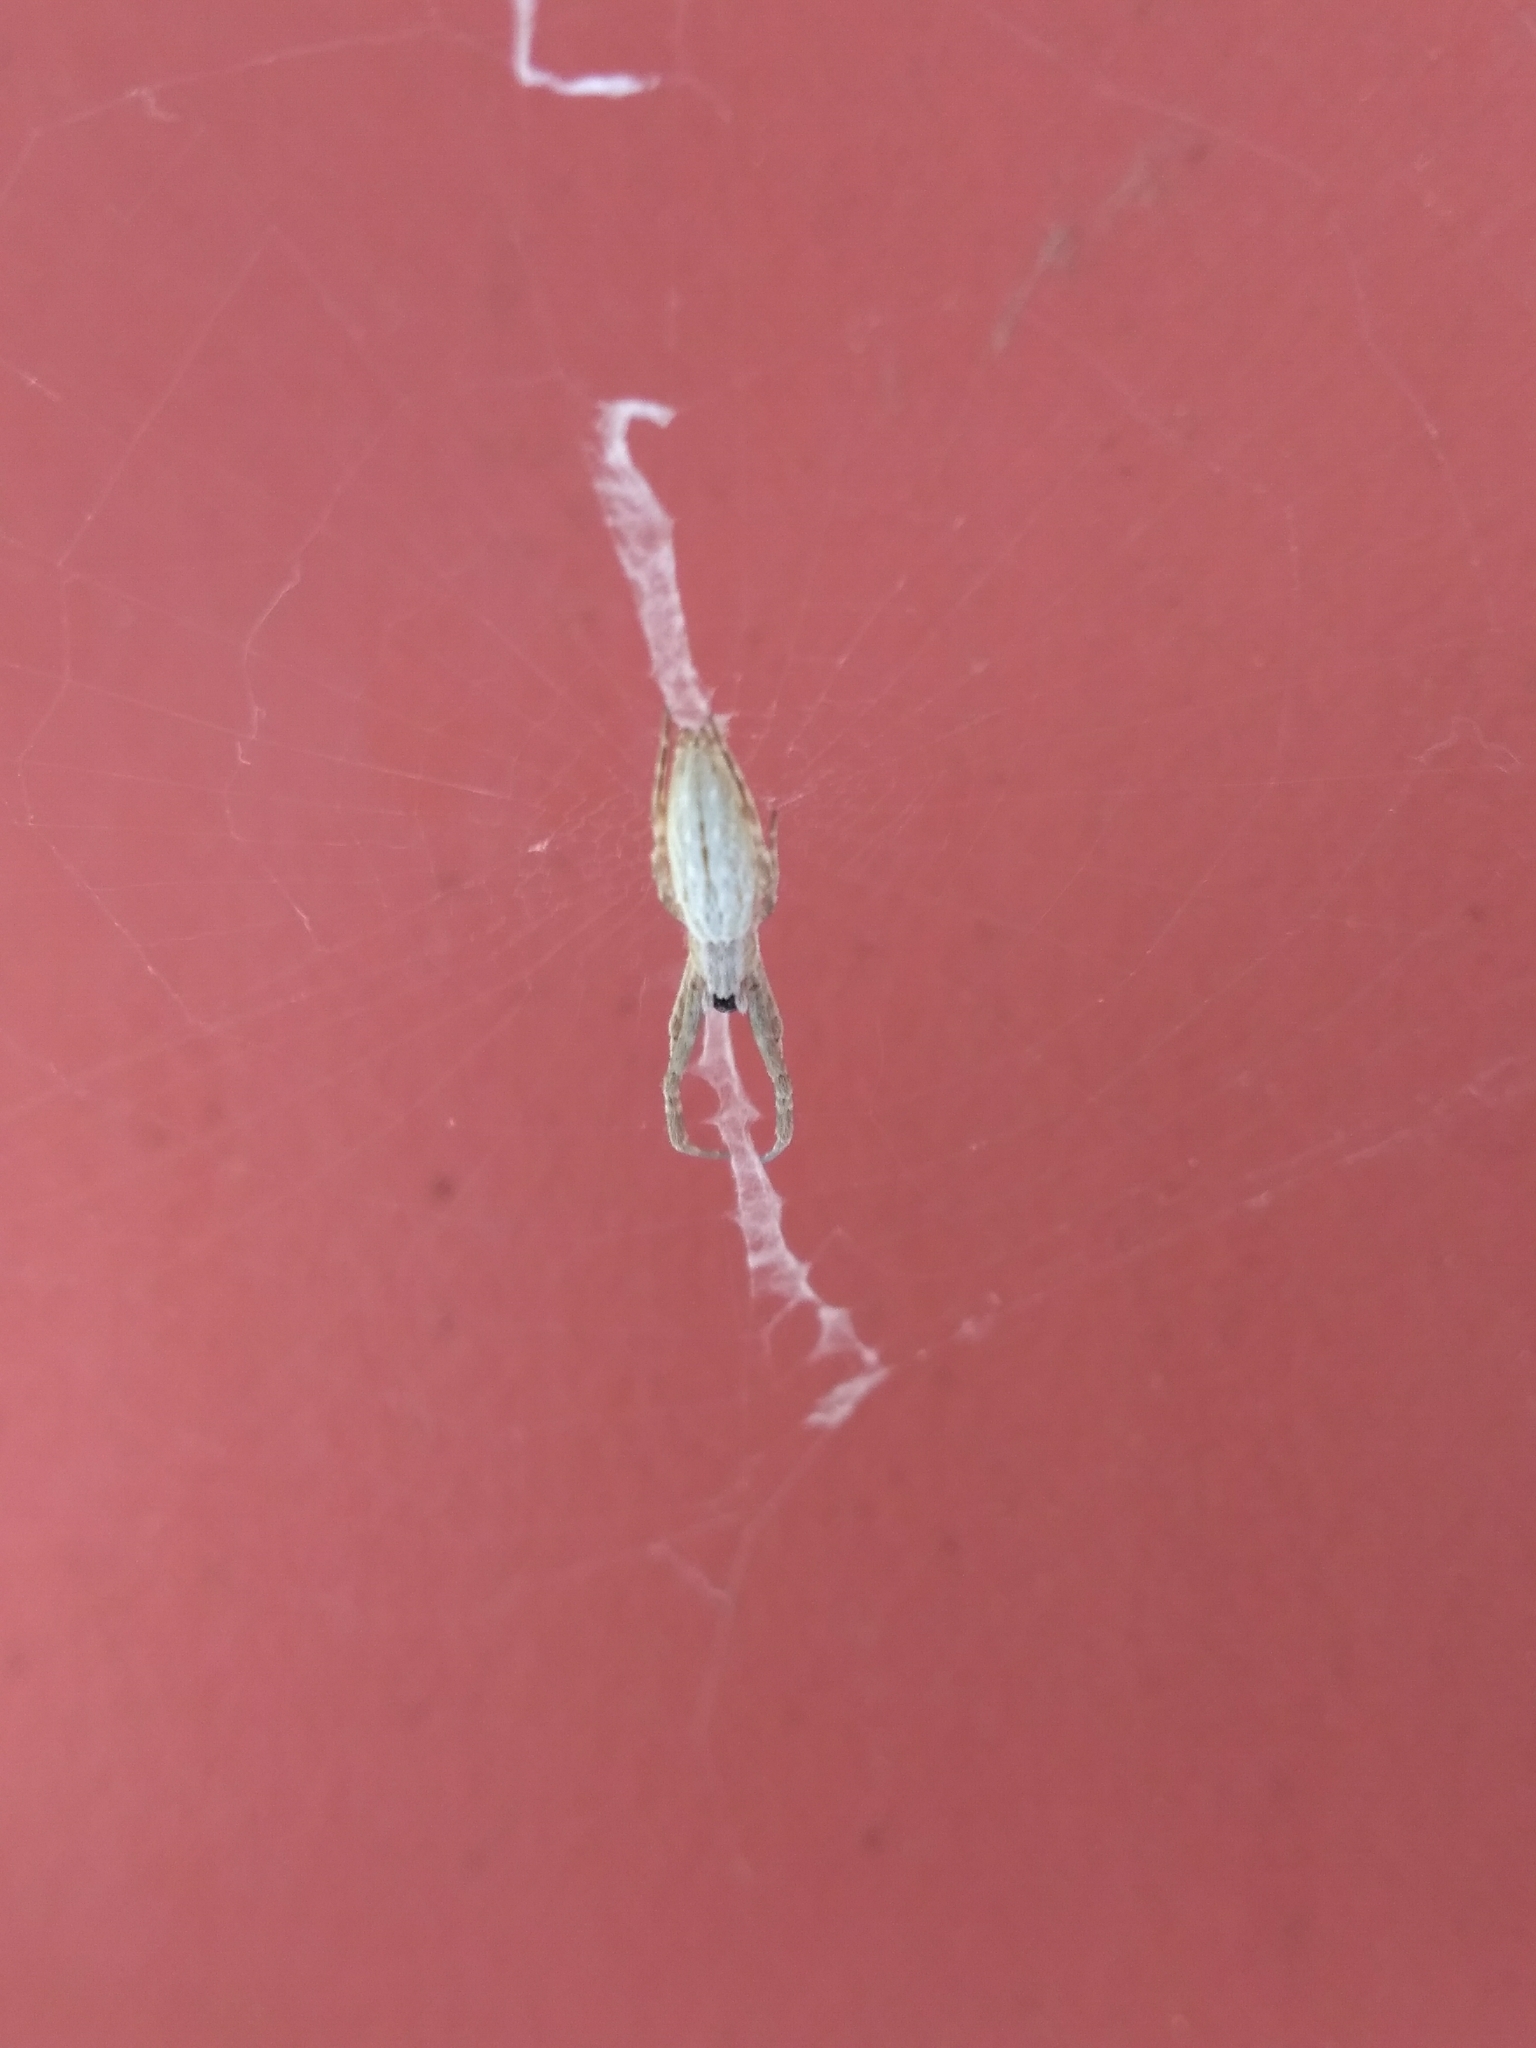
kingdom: Animalia
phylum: Arthropoda
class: Arachnida
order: Araneae
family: Uloboridae
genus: Uloborus
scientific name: Uloborus walckenaerius
